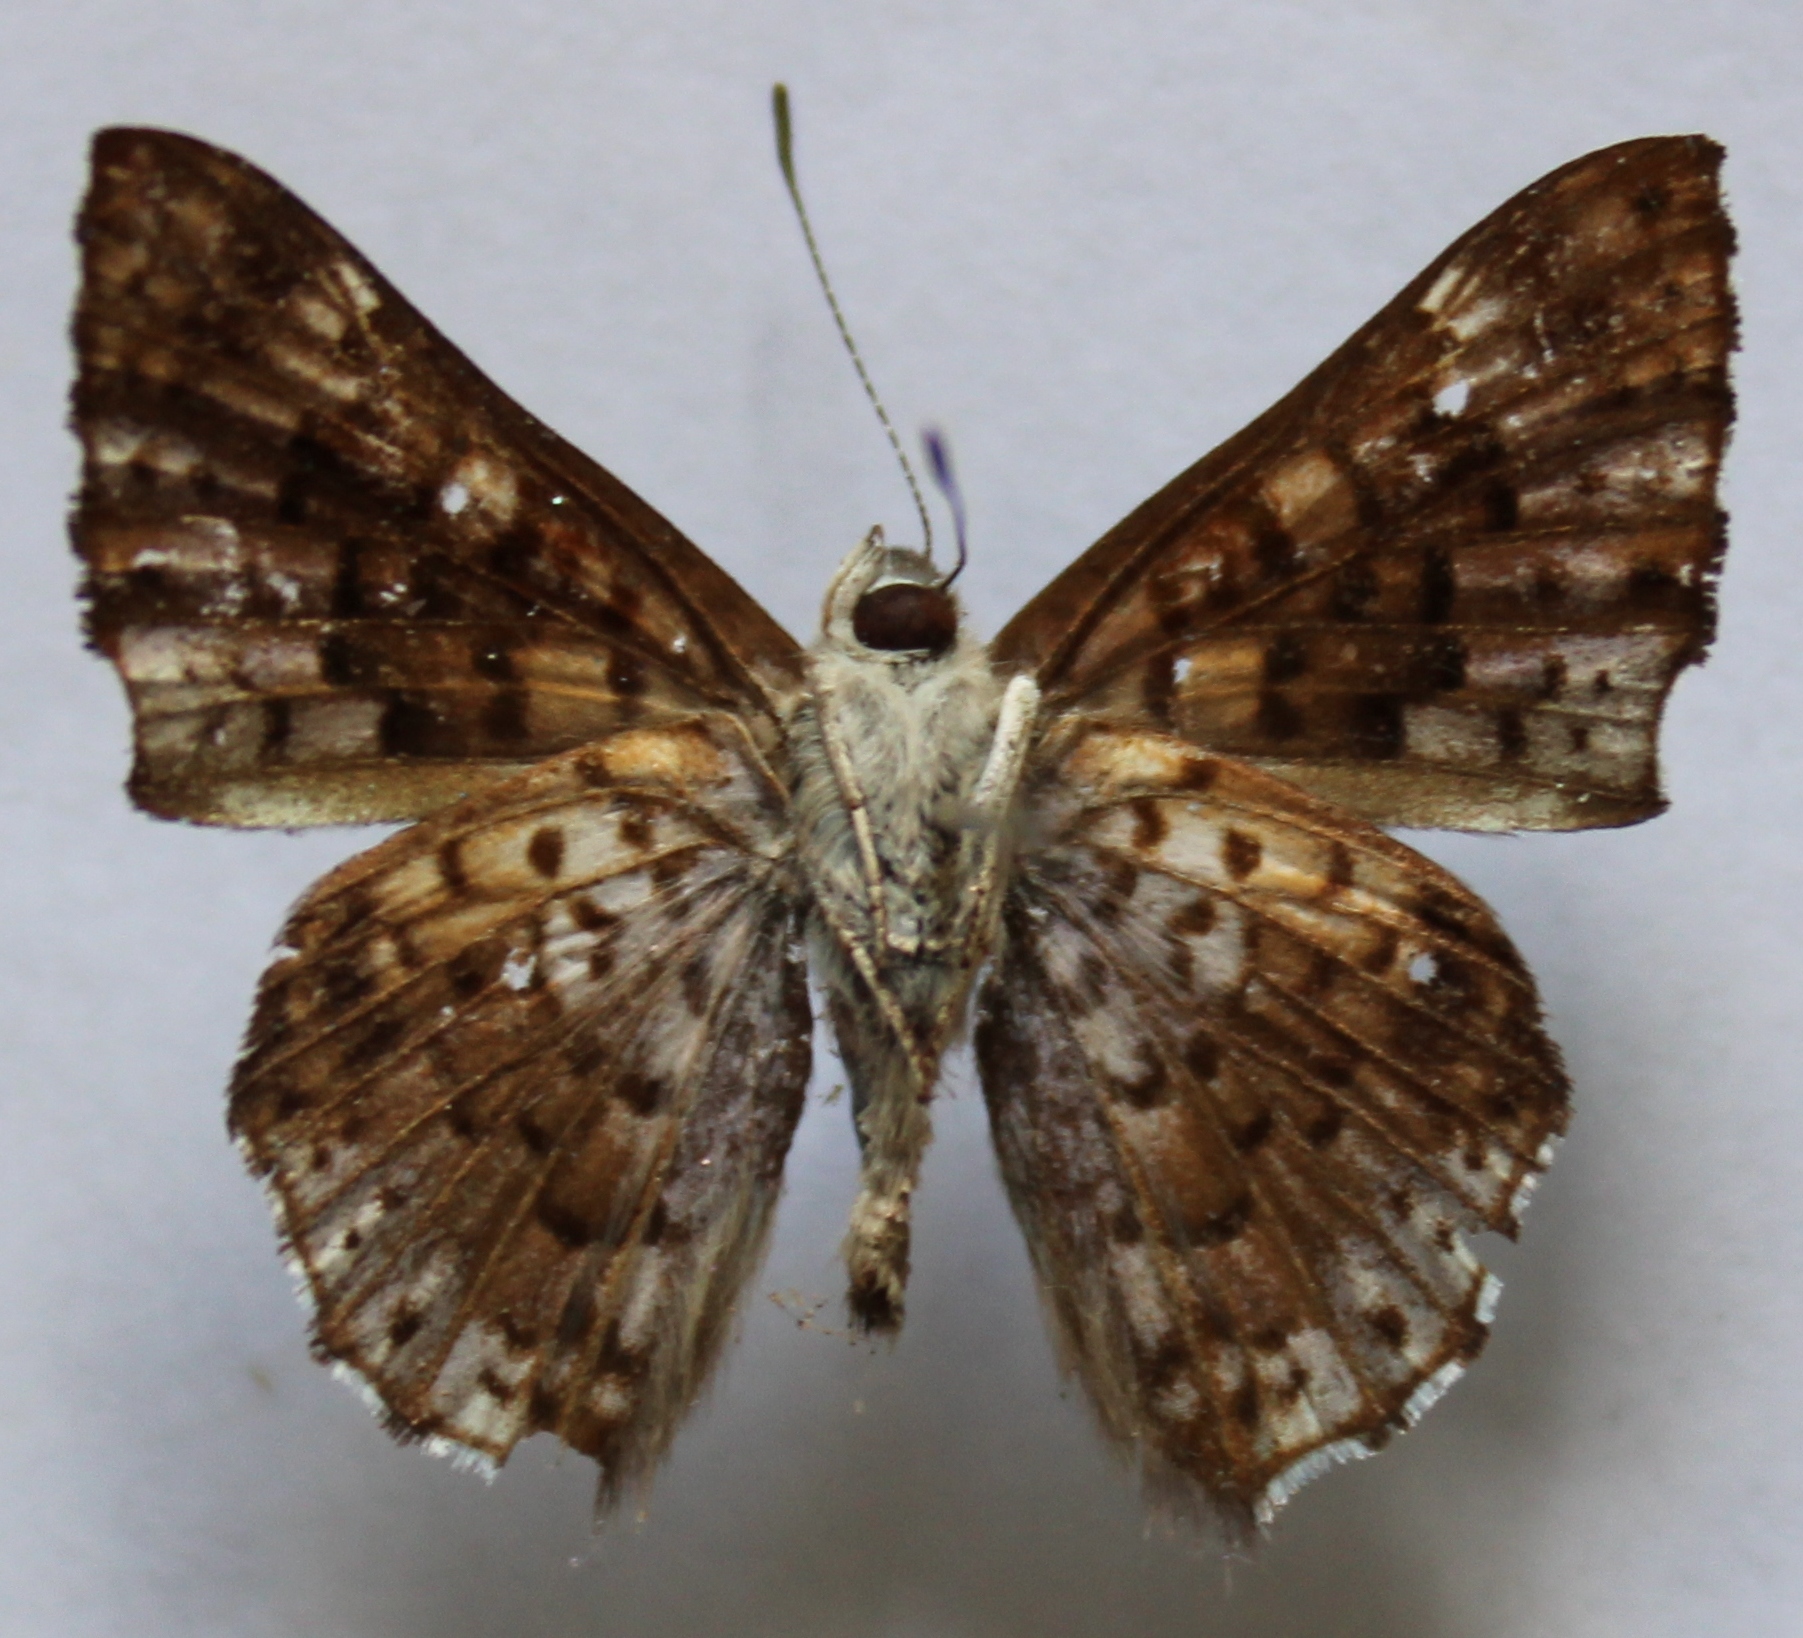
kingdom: Animalia
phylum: Arthropoda
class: Insecta
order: Lepidoptera
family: Riodinidae
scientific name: Riodinidae
